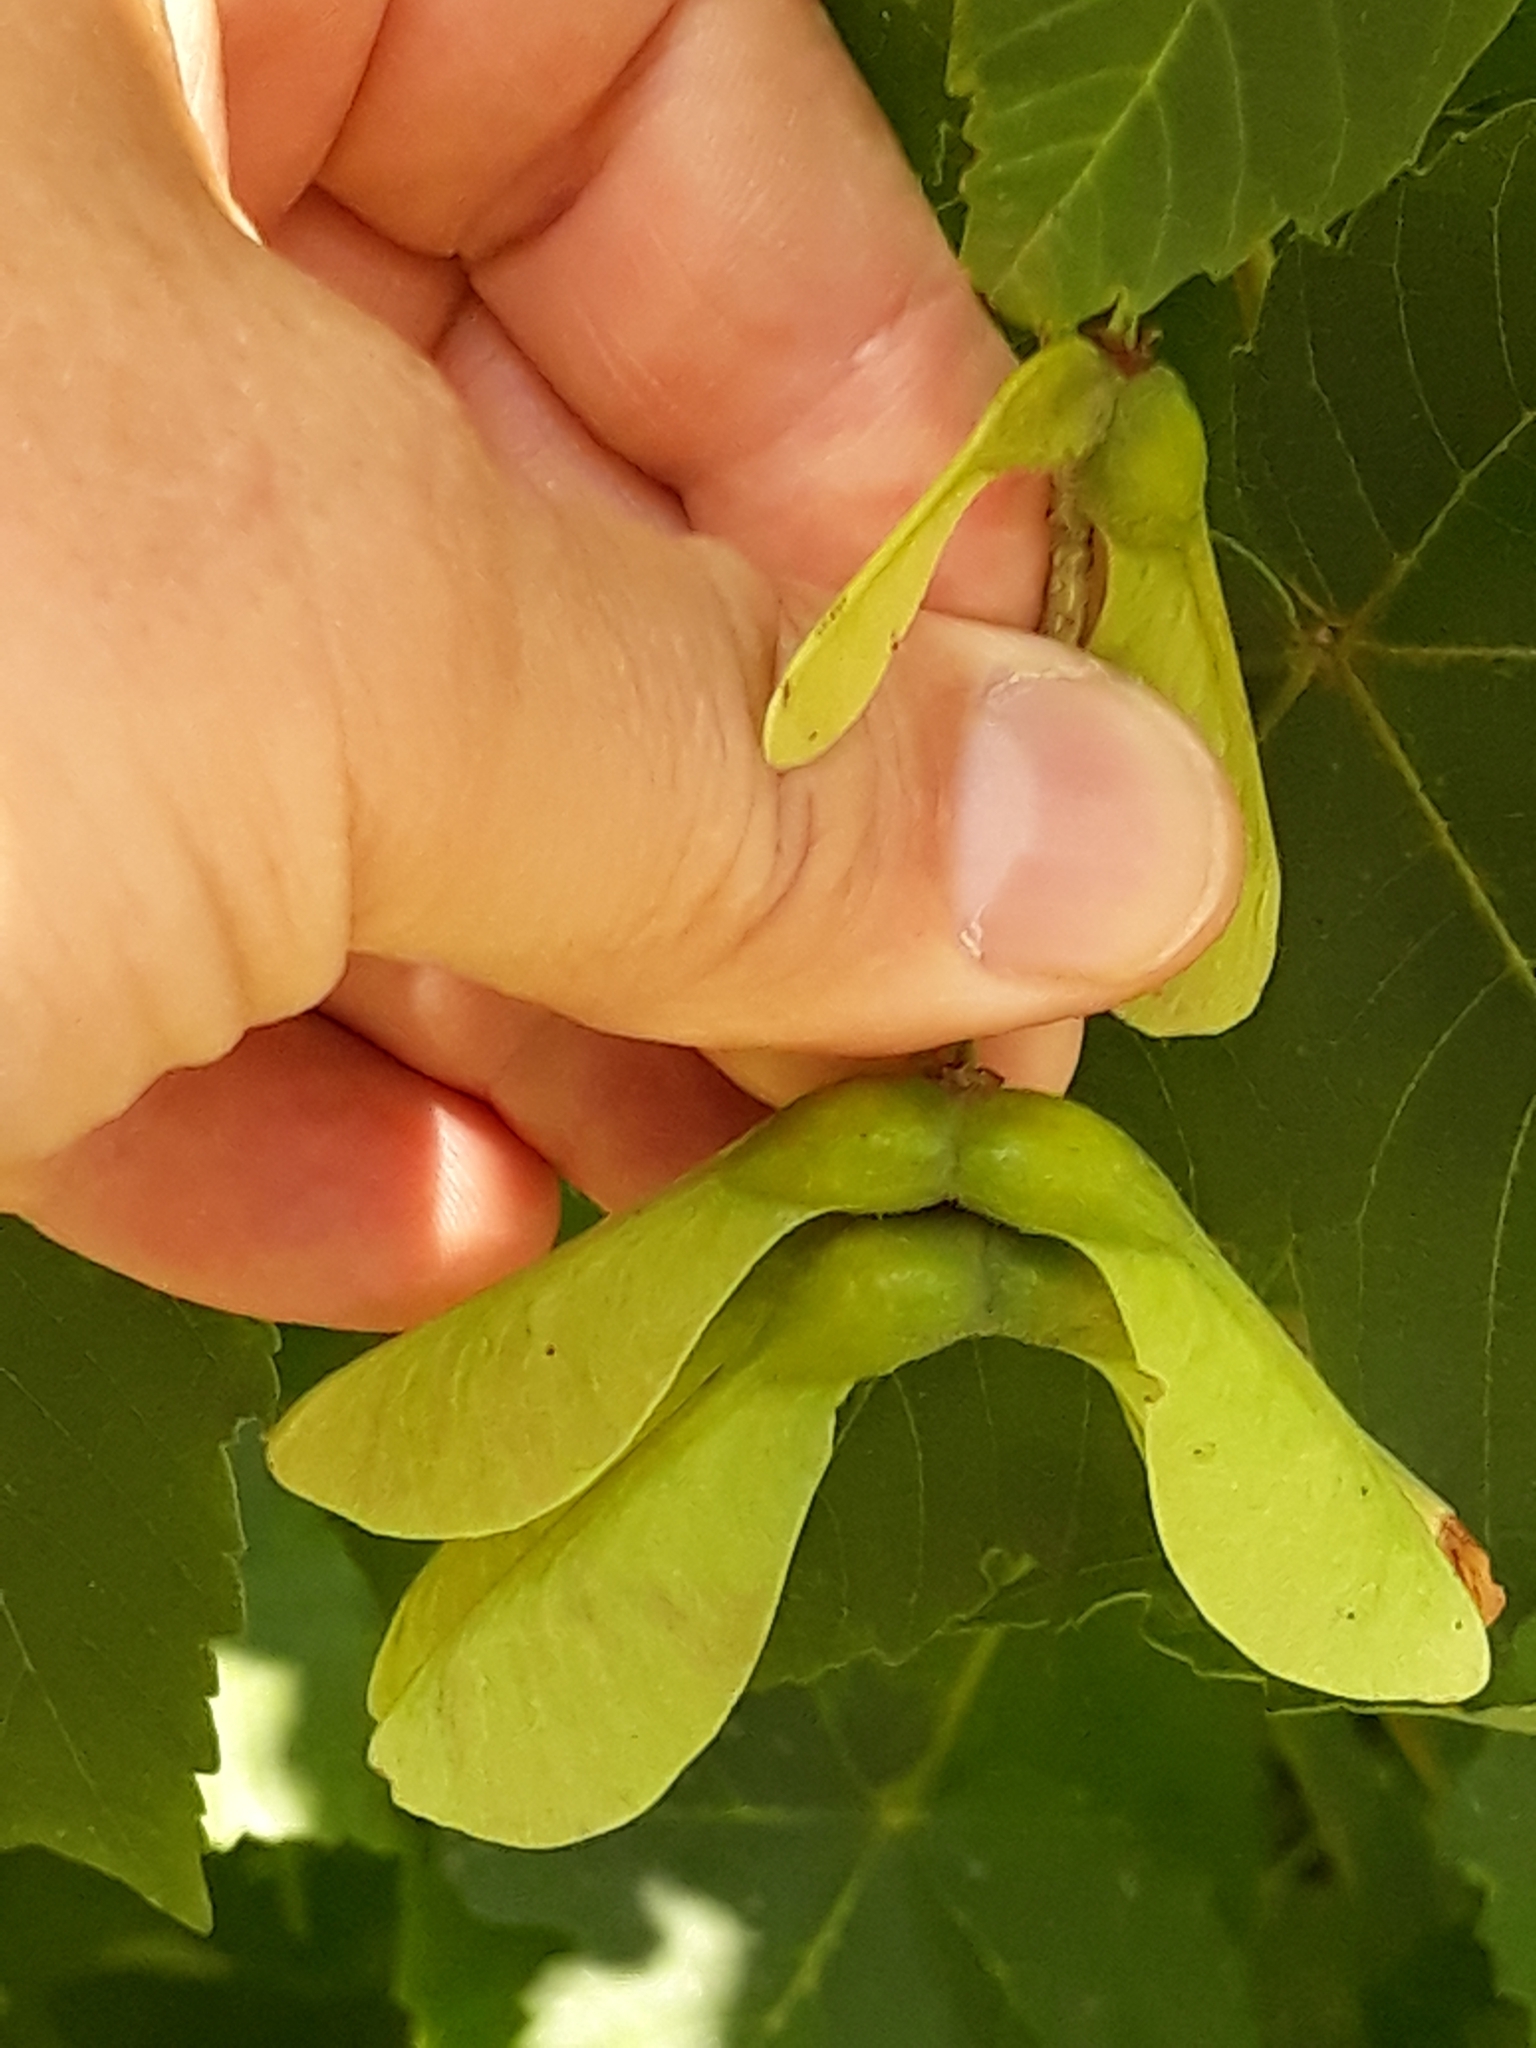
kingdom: Plantae
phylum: Tracheophyta
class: Magnoliopsida
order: Sapindales
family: Sapindaceae
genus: Acer
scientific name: Acer pseudoplatanus
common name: Sycamore
